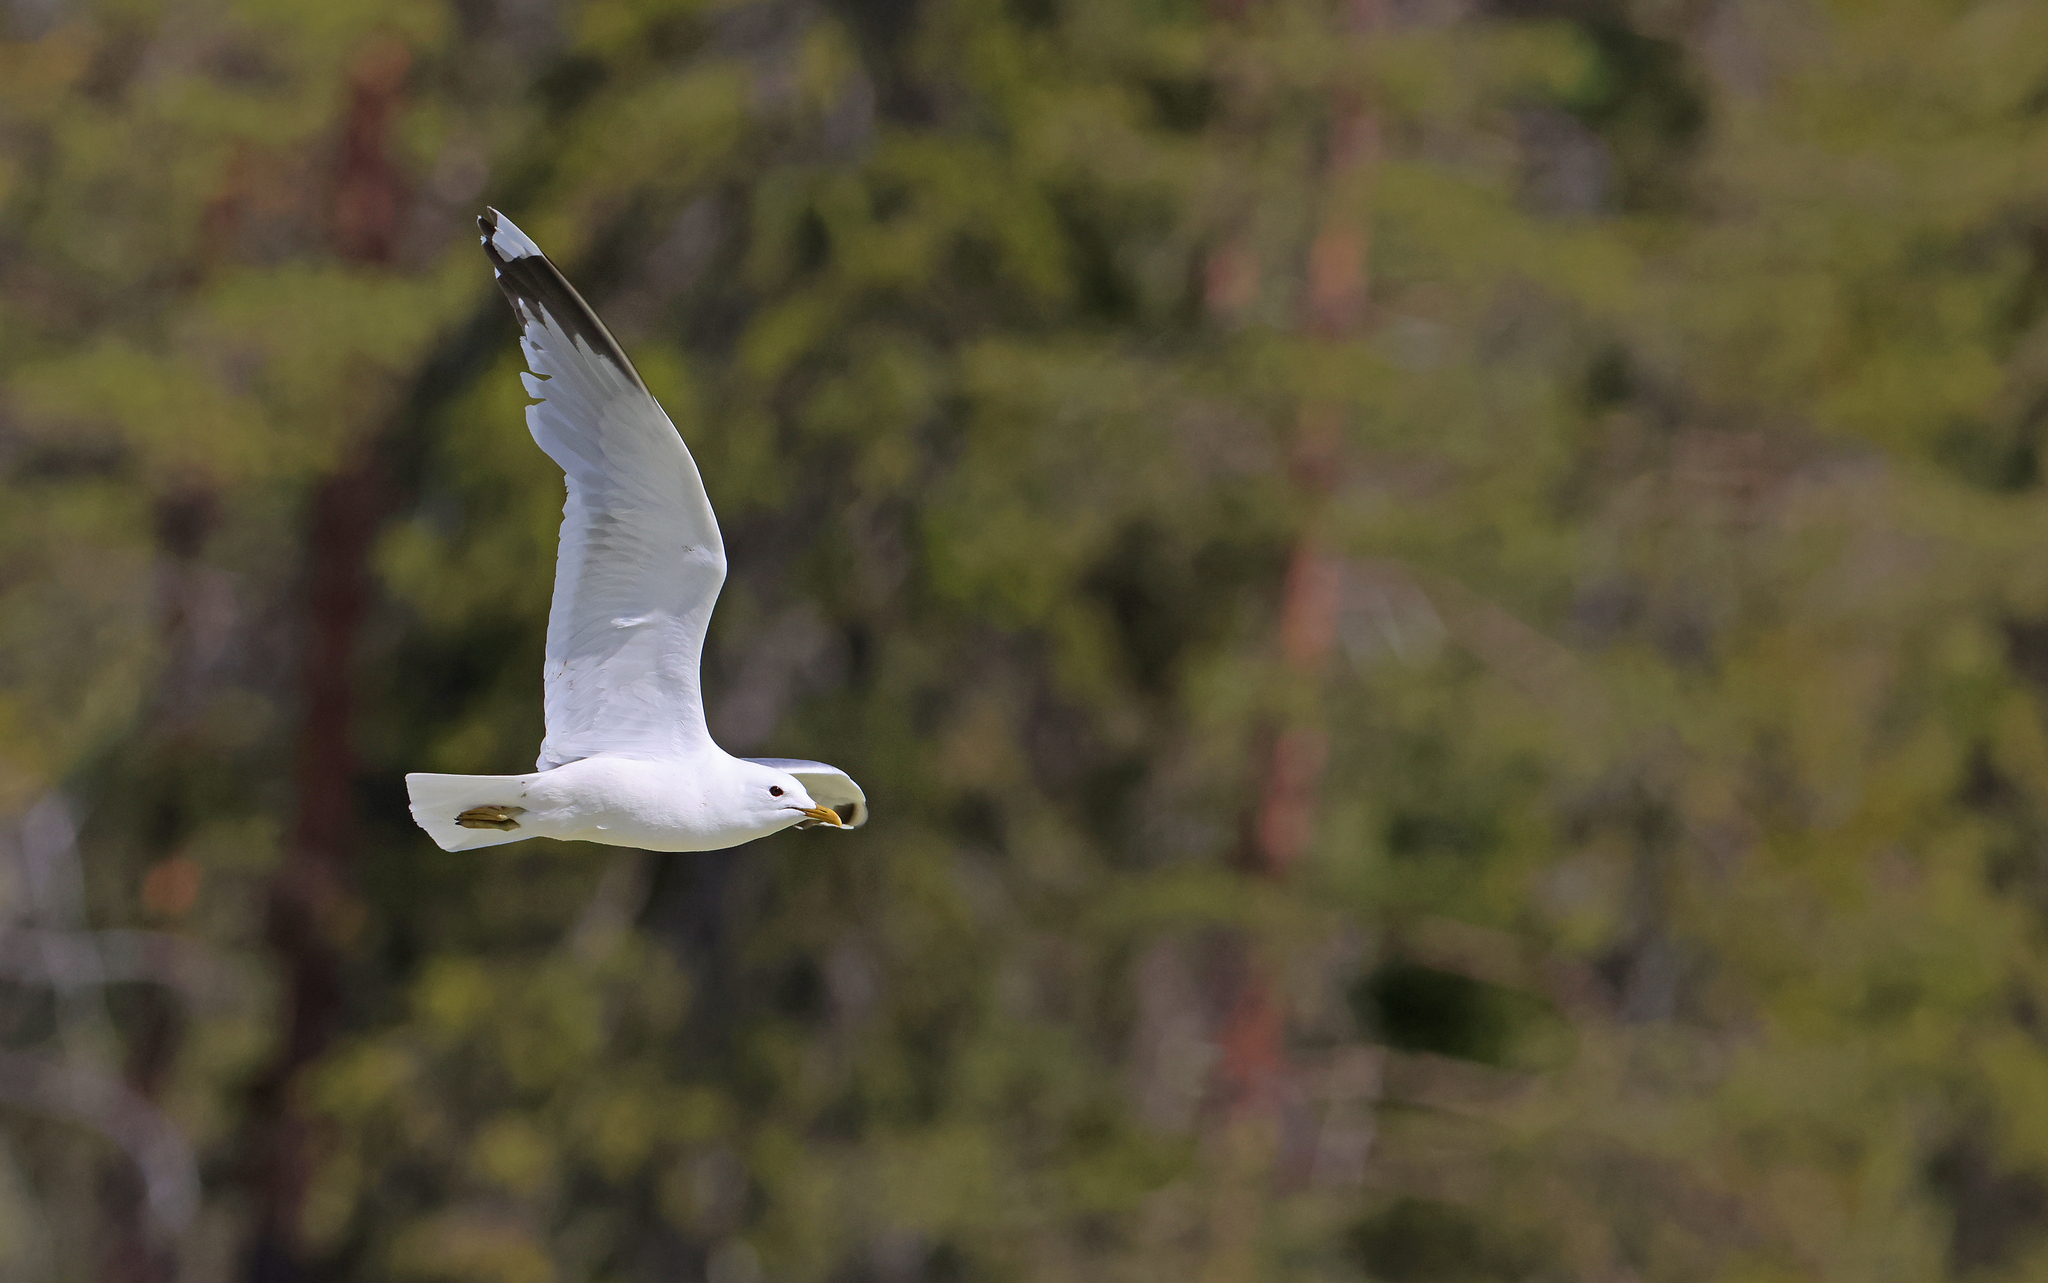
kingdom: Animalia
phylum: Chordata
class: Aves
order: Charadriiformes
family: Laridae
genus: Larus
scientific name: Larus canus
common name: Mew gull
